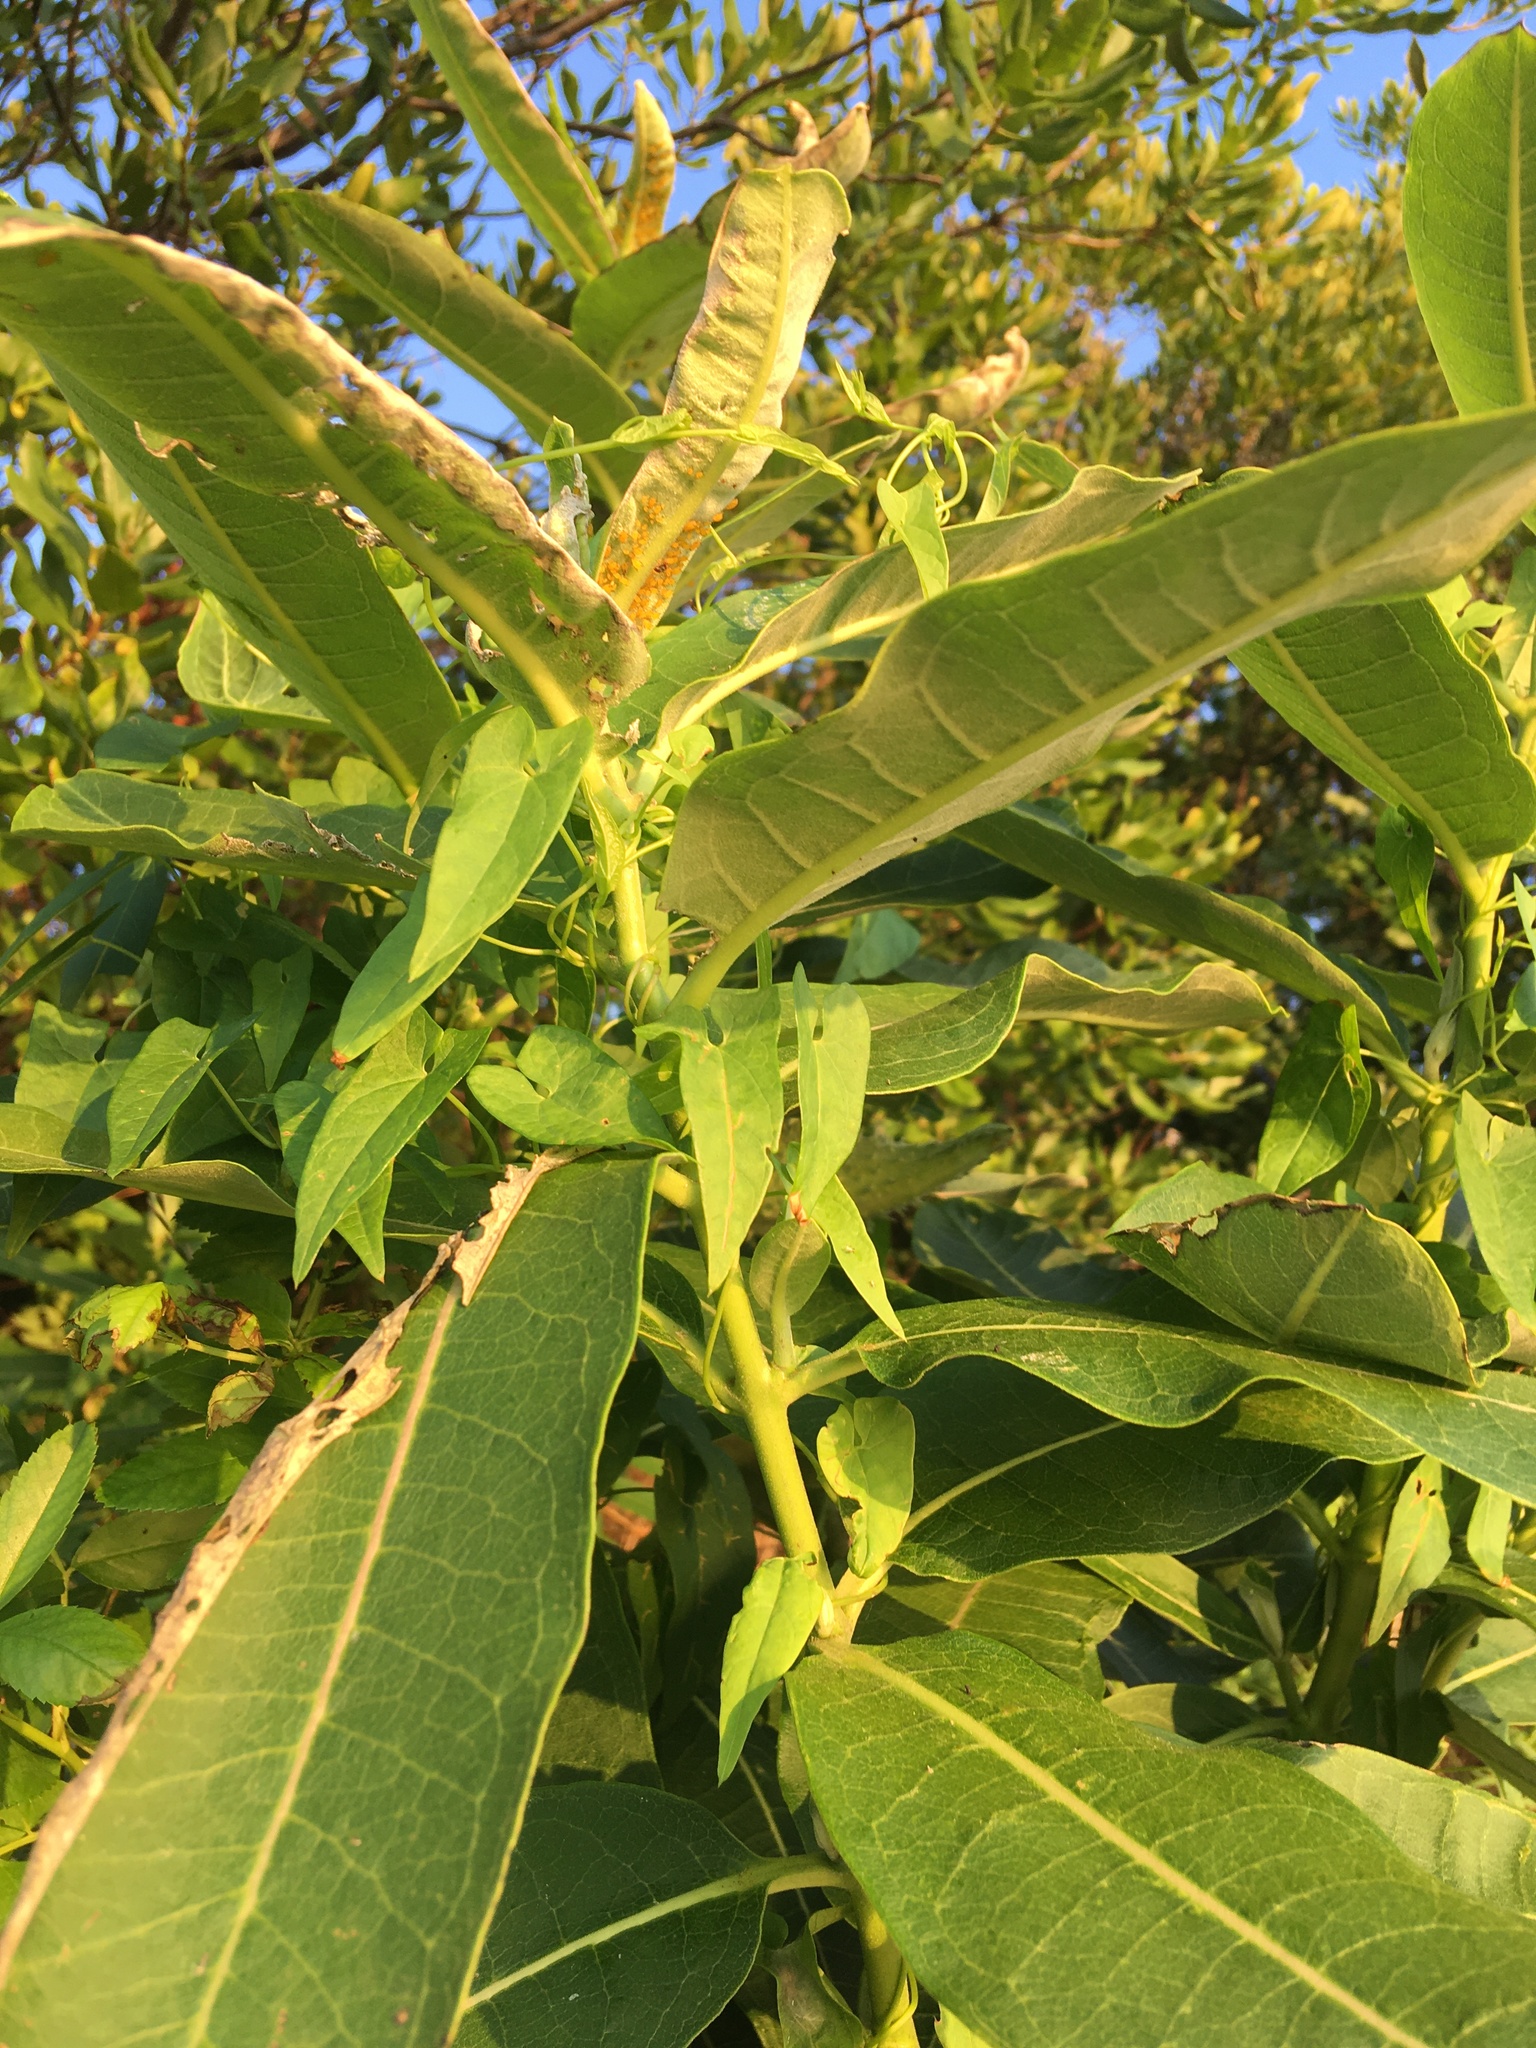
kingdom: Plantae
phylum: Tracheophyta
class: Magnoliopsida
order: Gentianales
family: Apocynaceae
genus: Asclepias
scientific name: Asclepias syriaca
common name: Common milkweed
